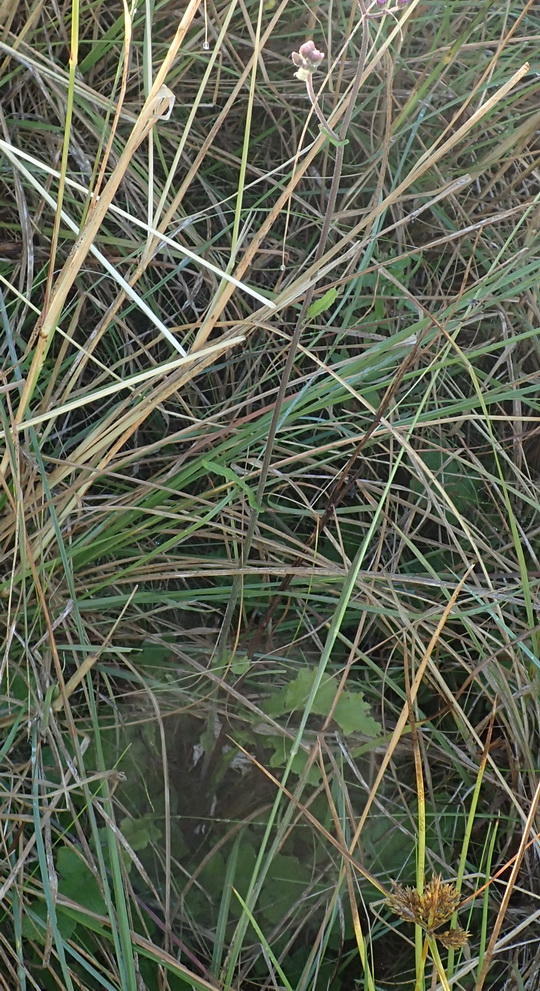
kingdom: Plantae
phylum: Tracheophyta
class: Magnoliopsida
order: Asterales
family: Asteraceae
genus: Senecio
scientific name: Senecio purpureus
